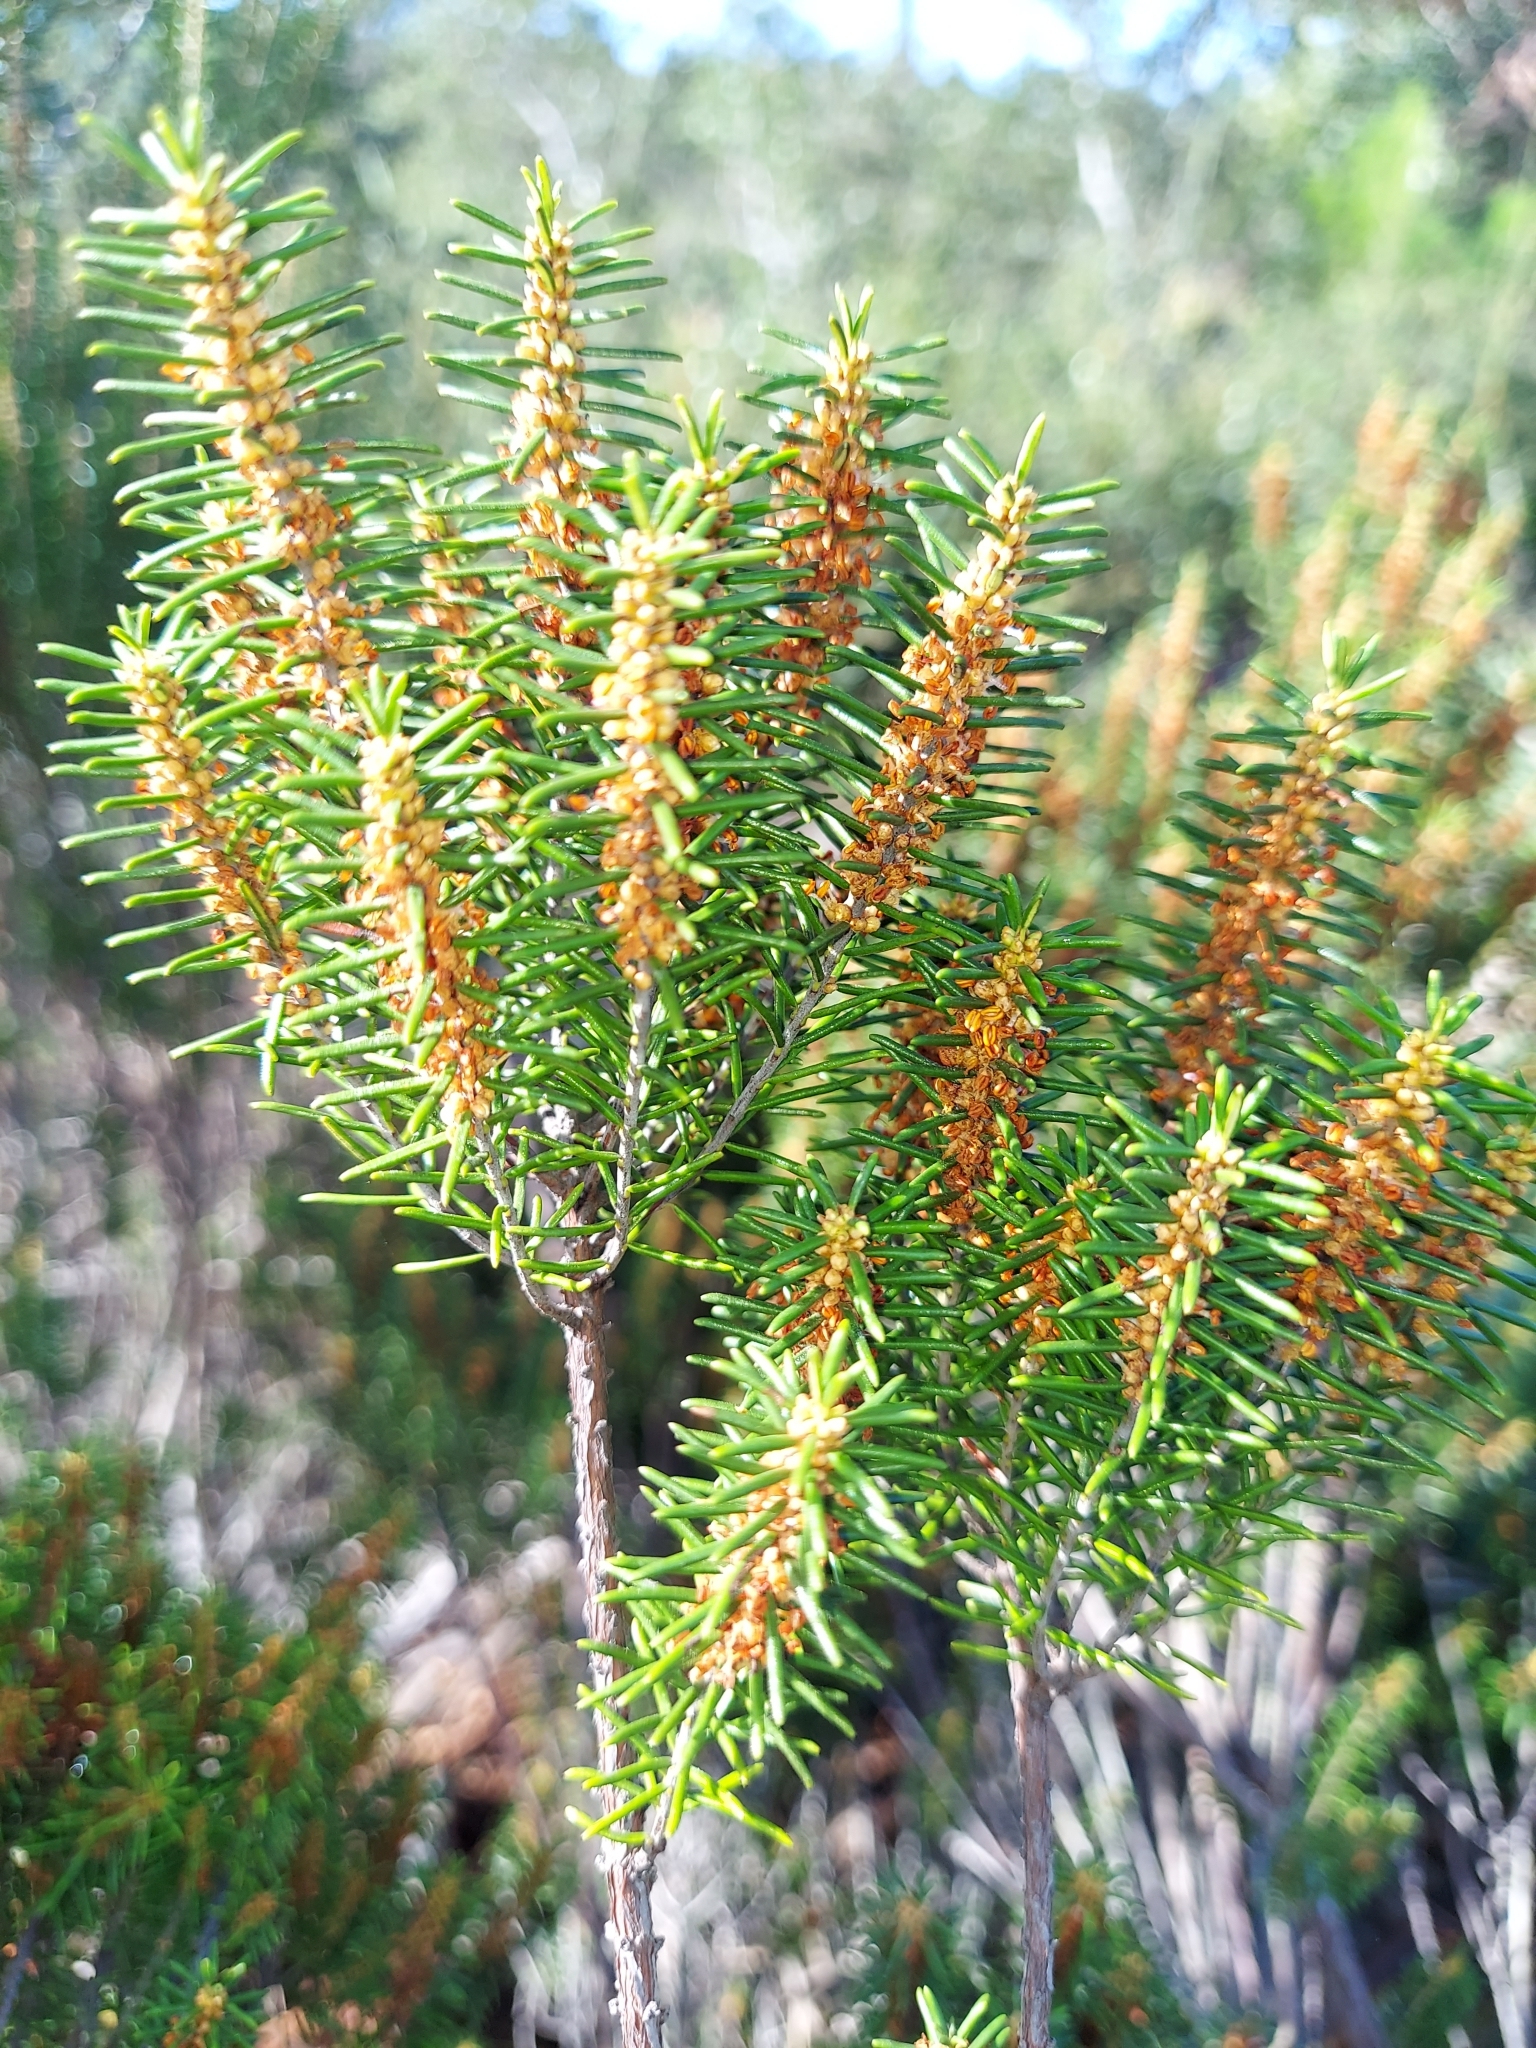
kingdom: Plantae
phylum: Tracheophyta
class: Magnoliopsida
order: Ericales
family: Ericaceae
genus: Ceratiola
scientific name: Ceratiola ericoides
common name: Sandhill-rosemary
